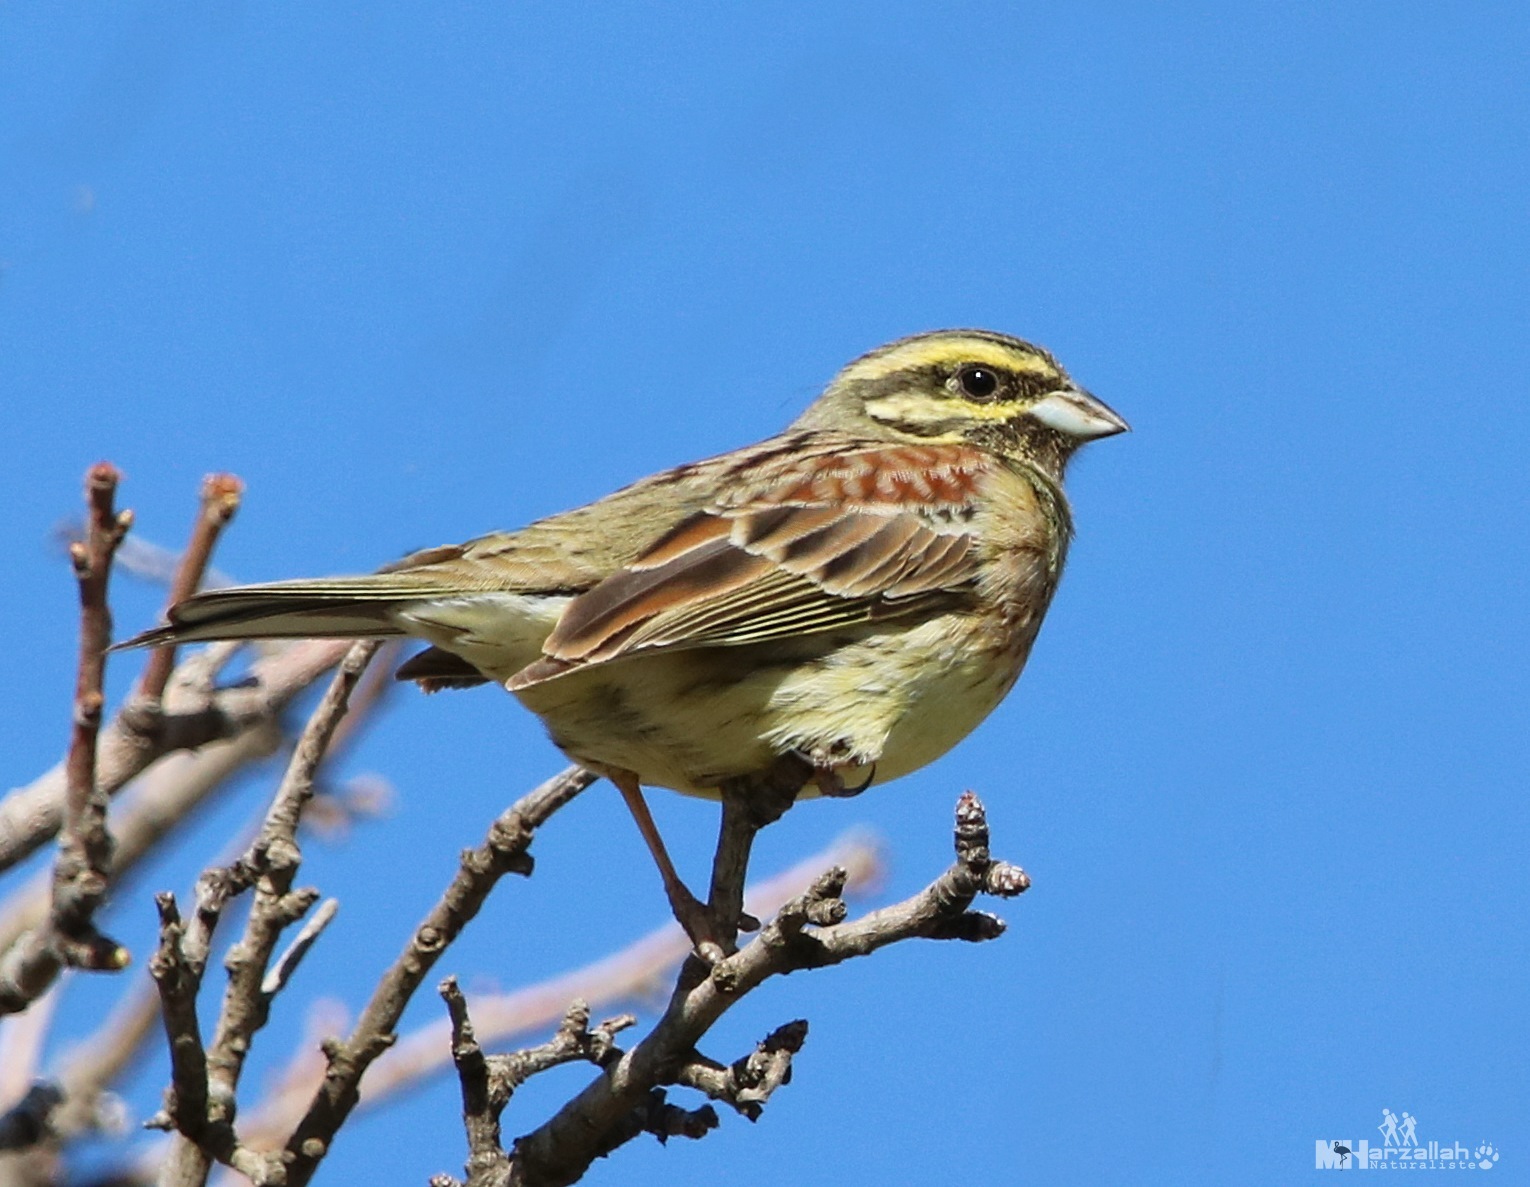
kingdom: Animalia
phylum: Chordata
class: Aves
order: Passeriformes
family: Emberizidae
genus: Emberiza
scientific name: Emberiza cirlus
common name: Cirl bunting
